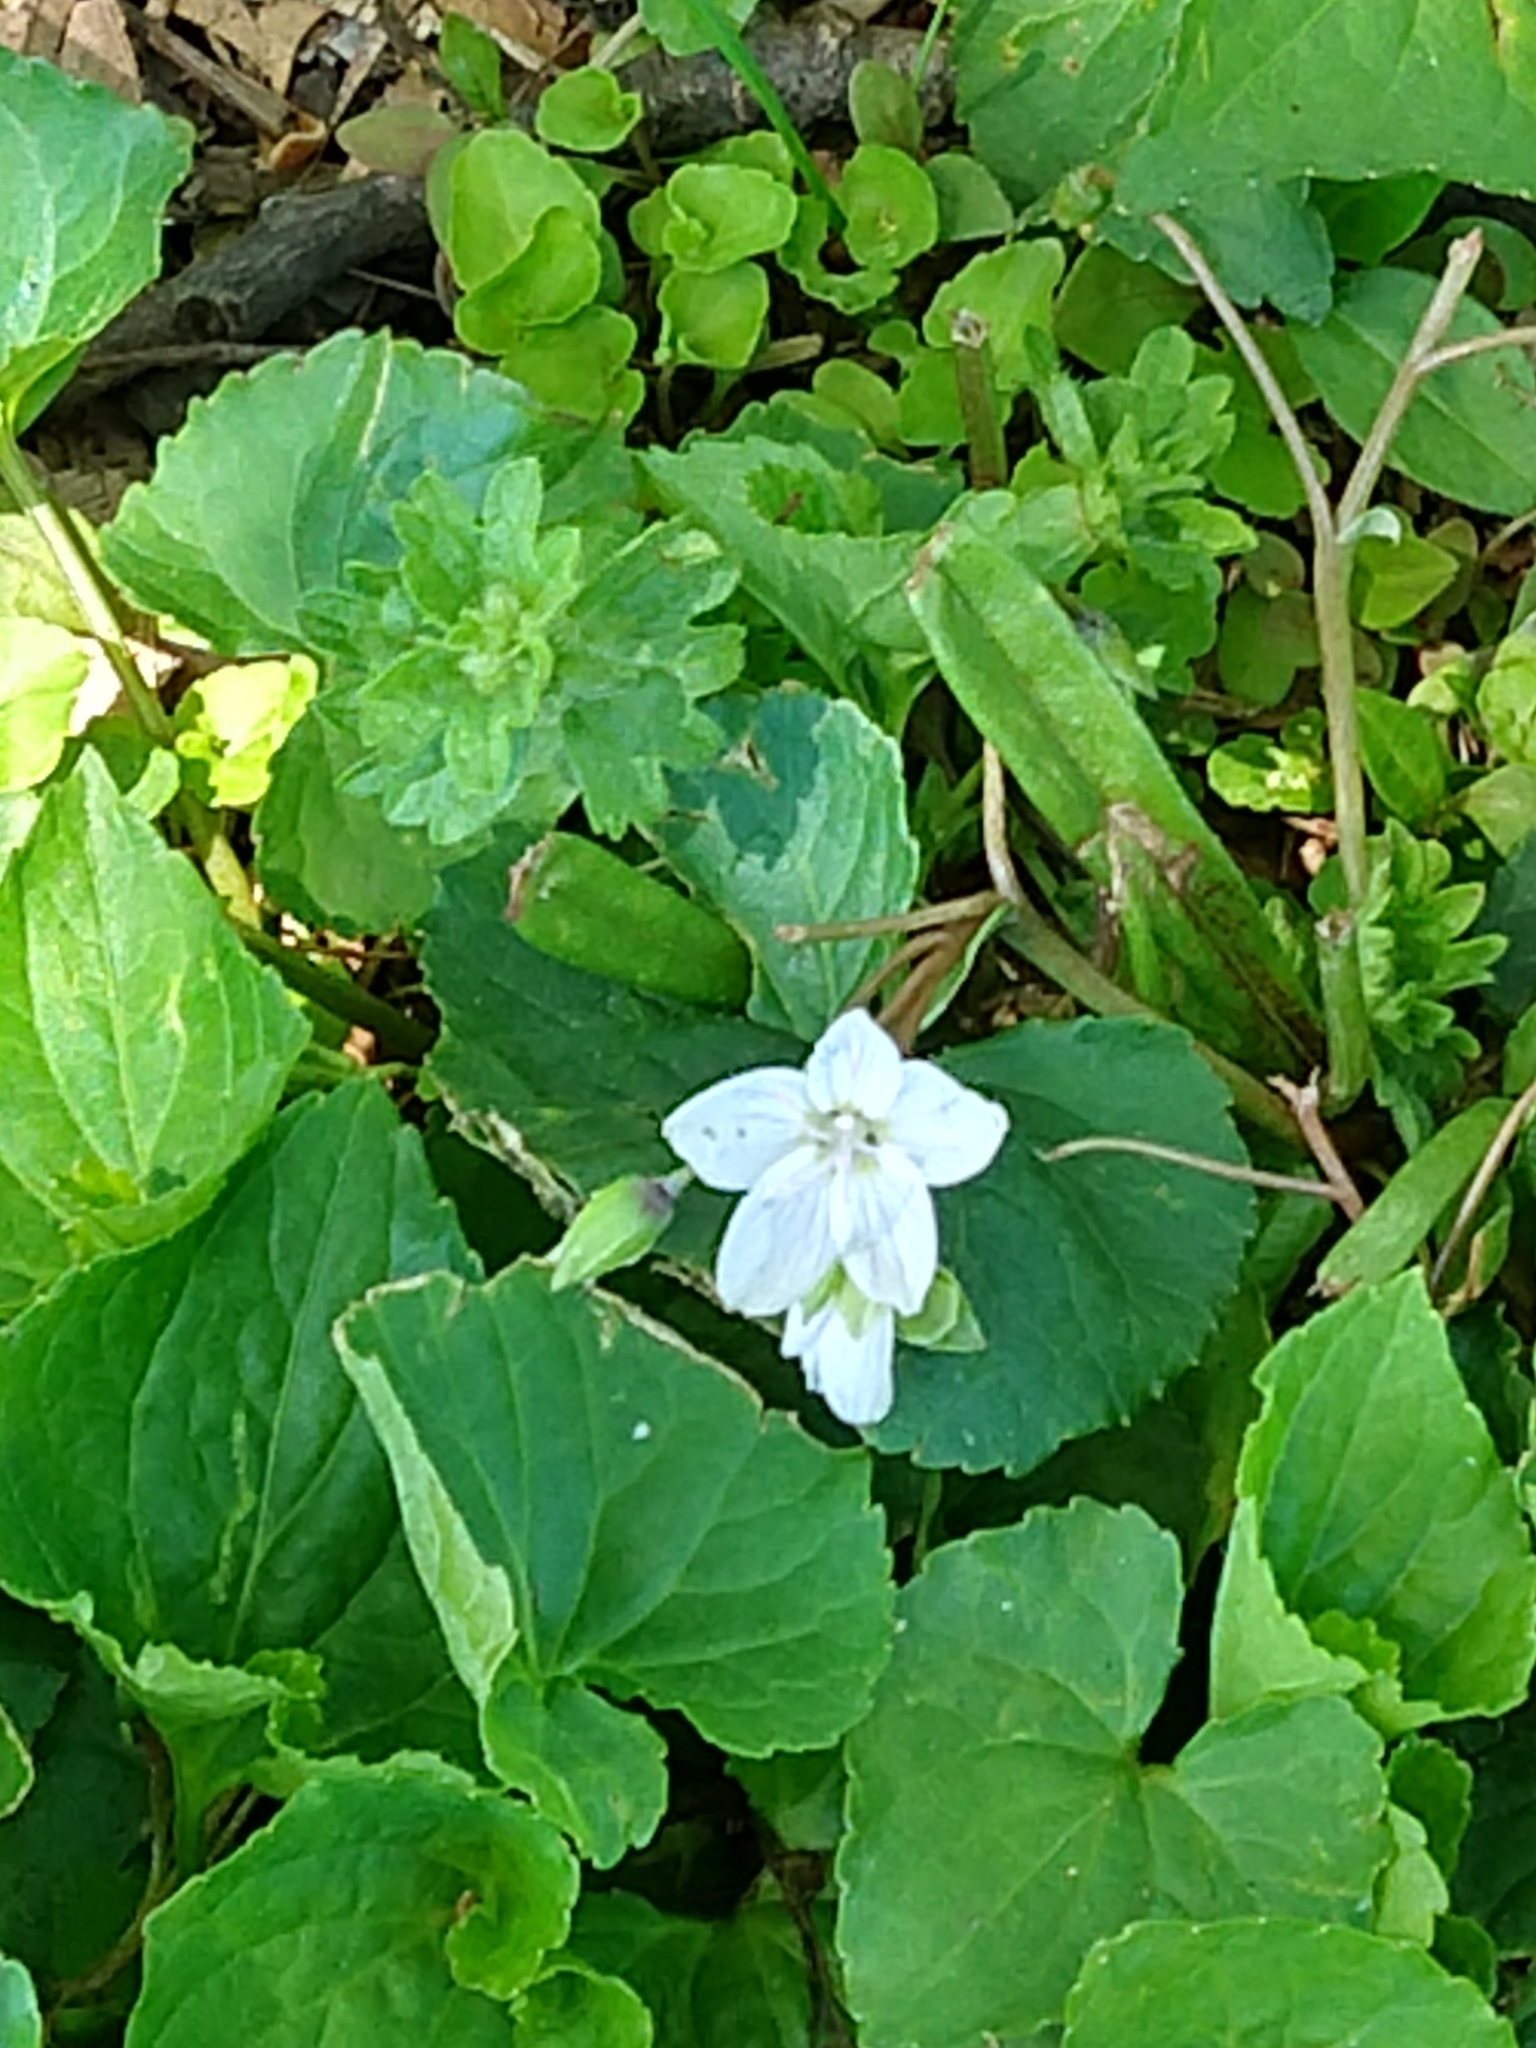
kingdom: Plantae
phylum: Tracheophyta
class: Magnoliopsida
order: Caryophyllales
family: Montiaceae
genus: Claytonia
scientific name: Claytonia virginica
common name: Virginia springbeauty
